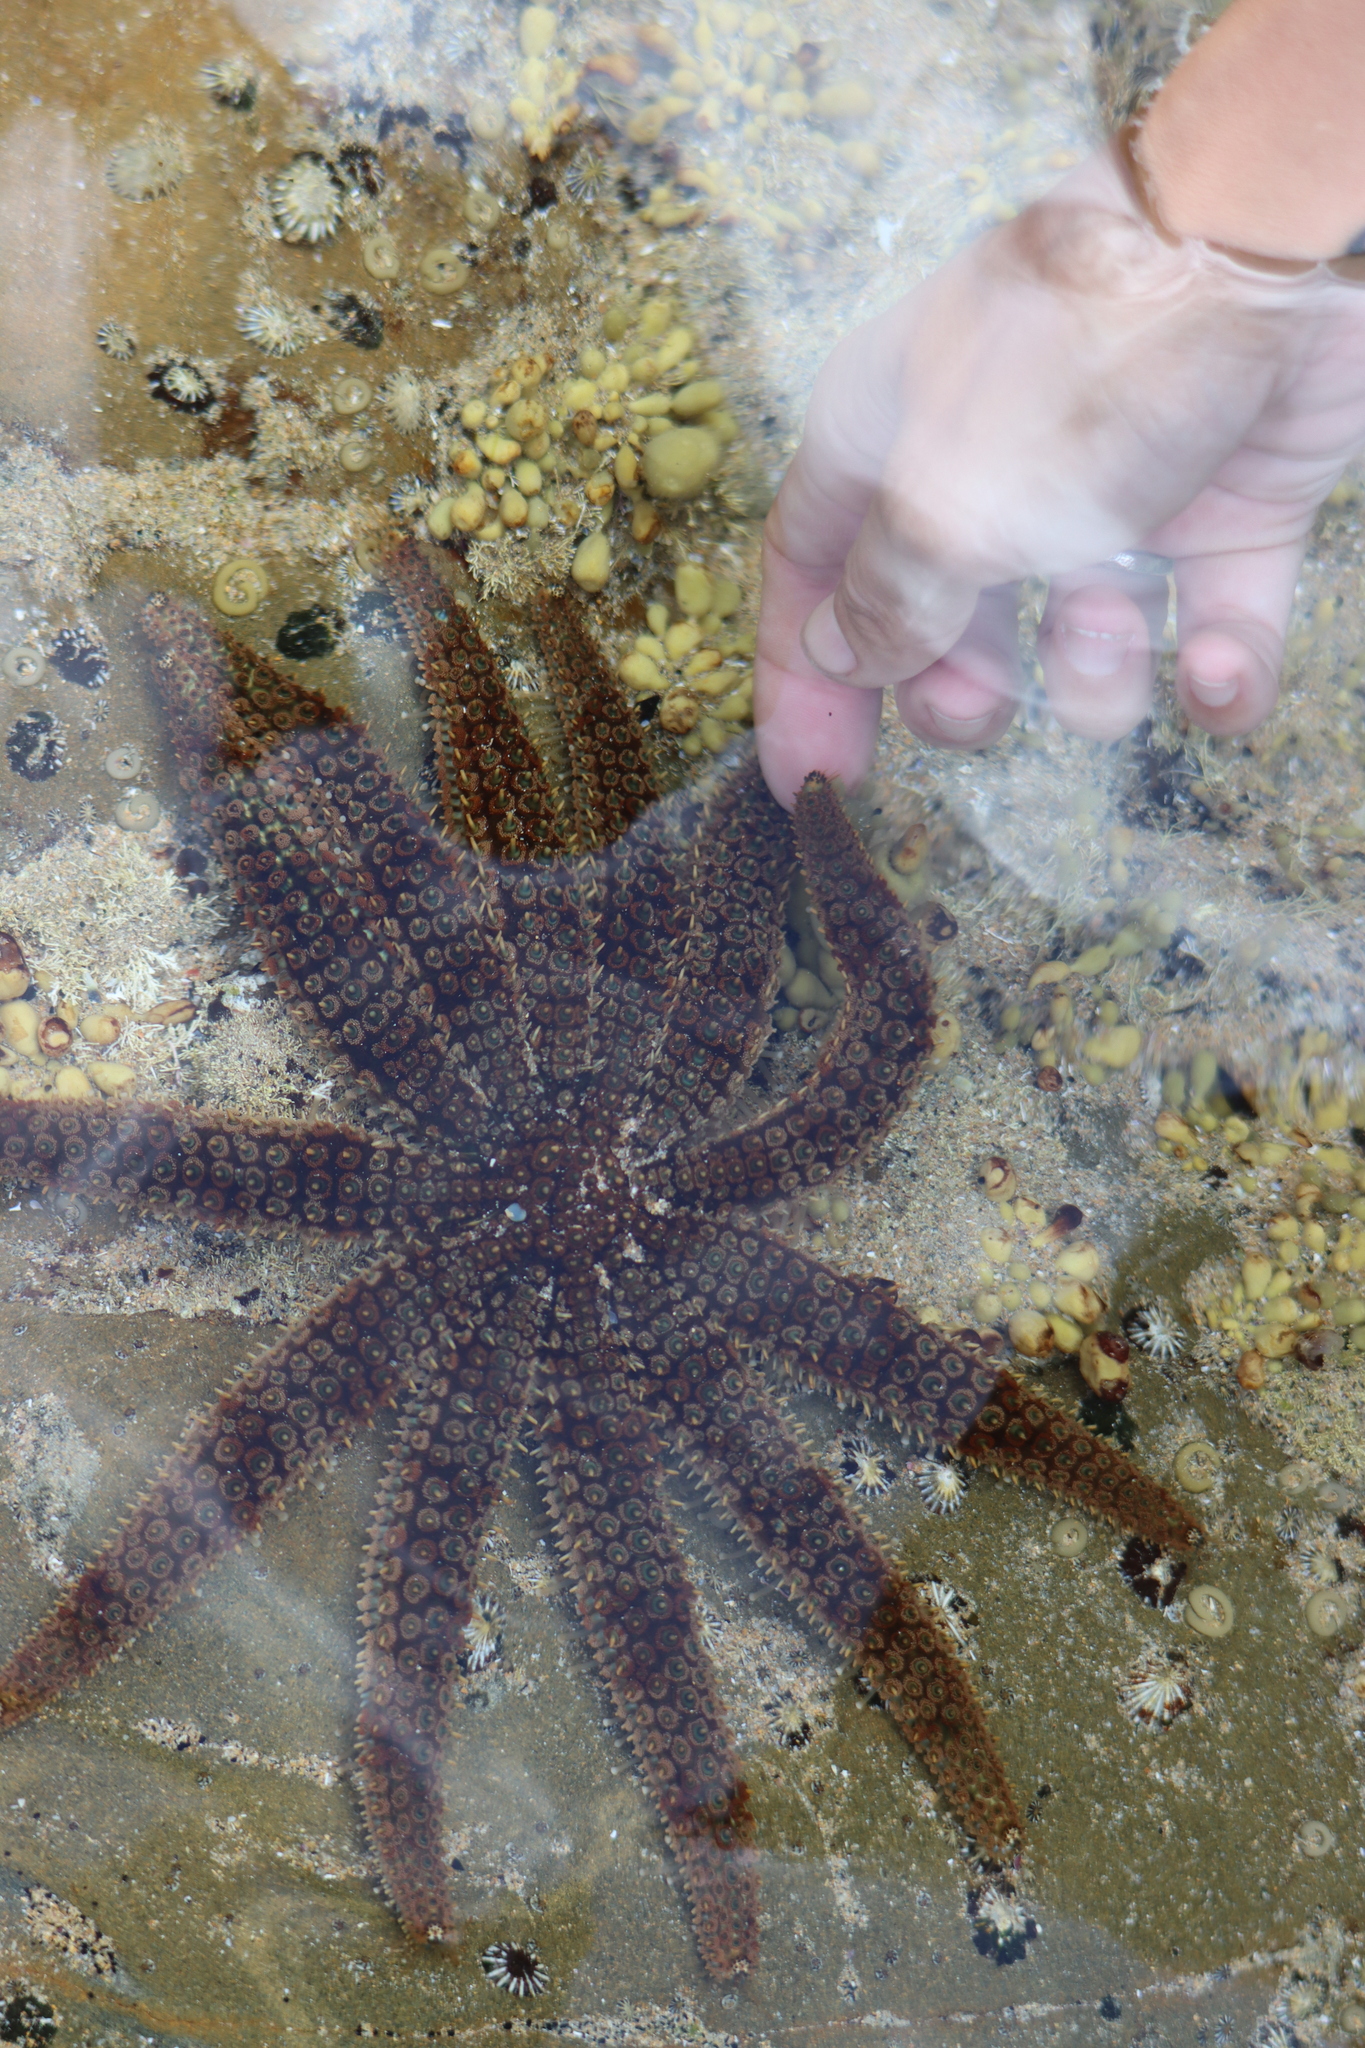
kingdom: Animalia
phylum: Echinodermata
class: Asteroidea
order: Forcipulatida
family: Asteriidae
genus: Coscinasterias
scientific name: Coscinasterias muricata
